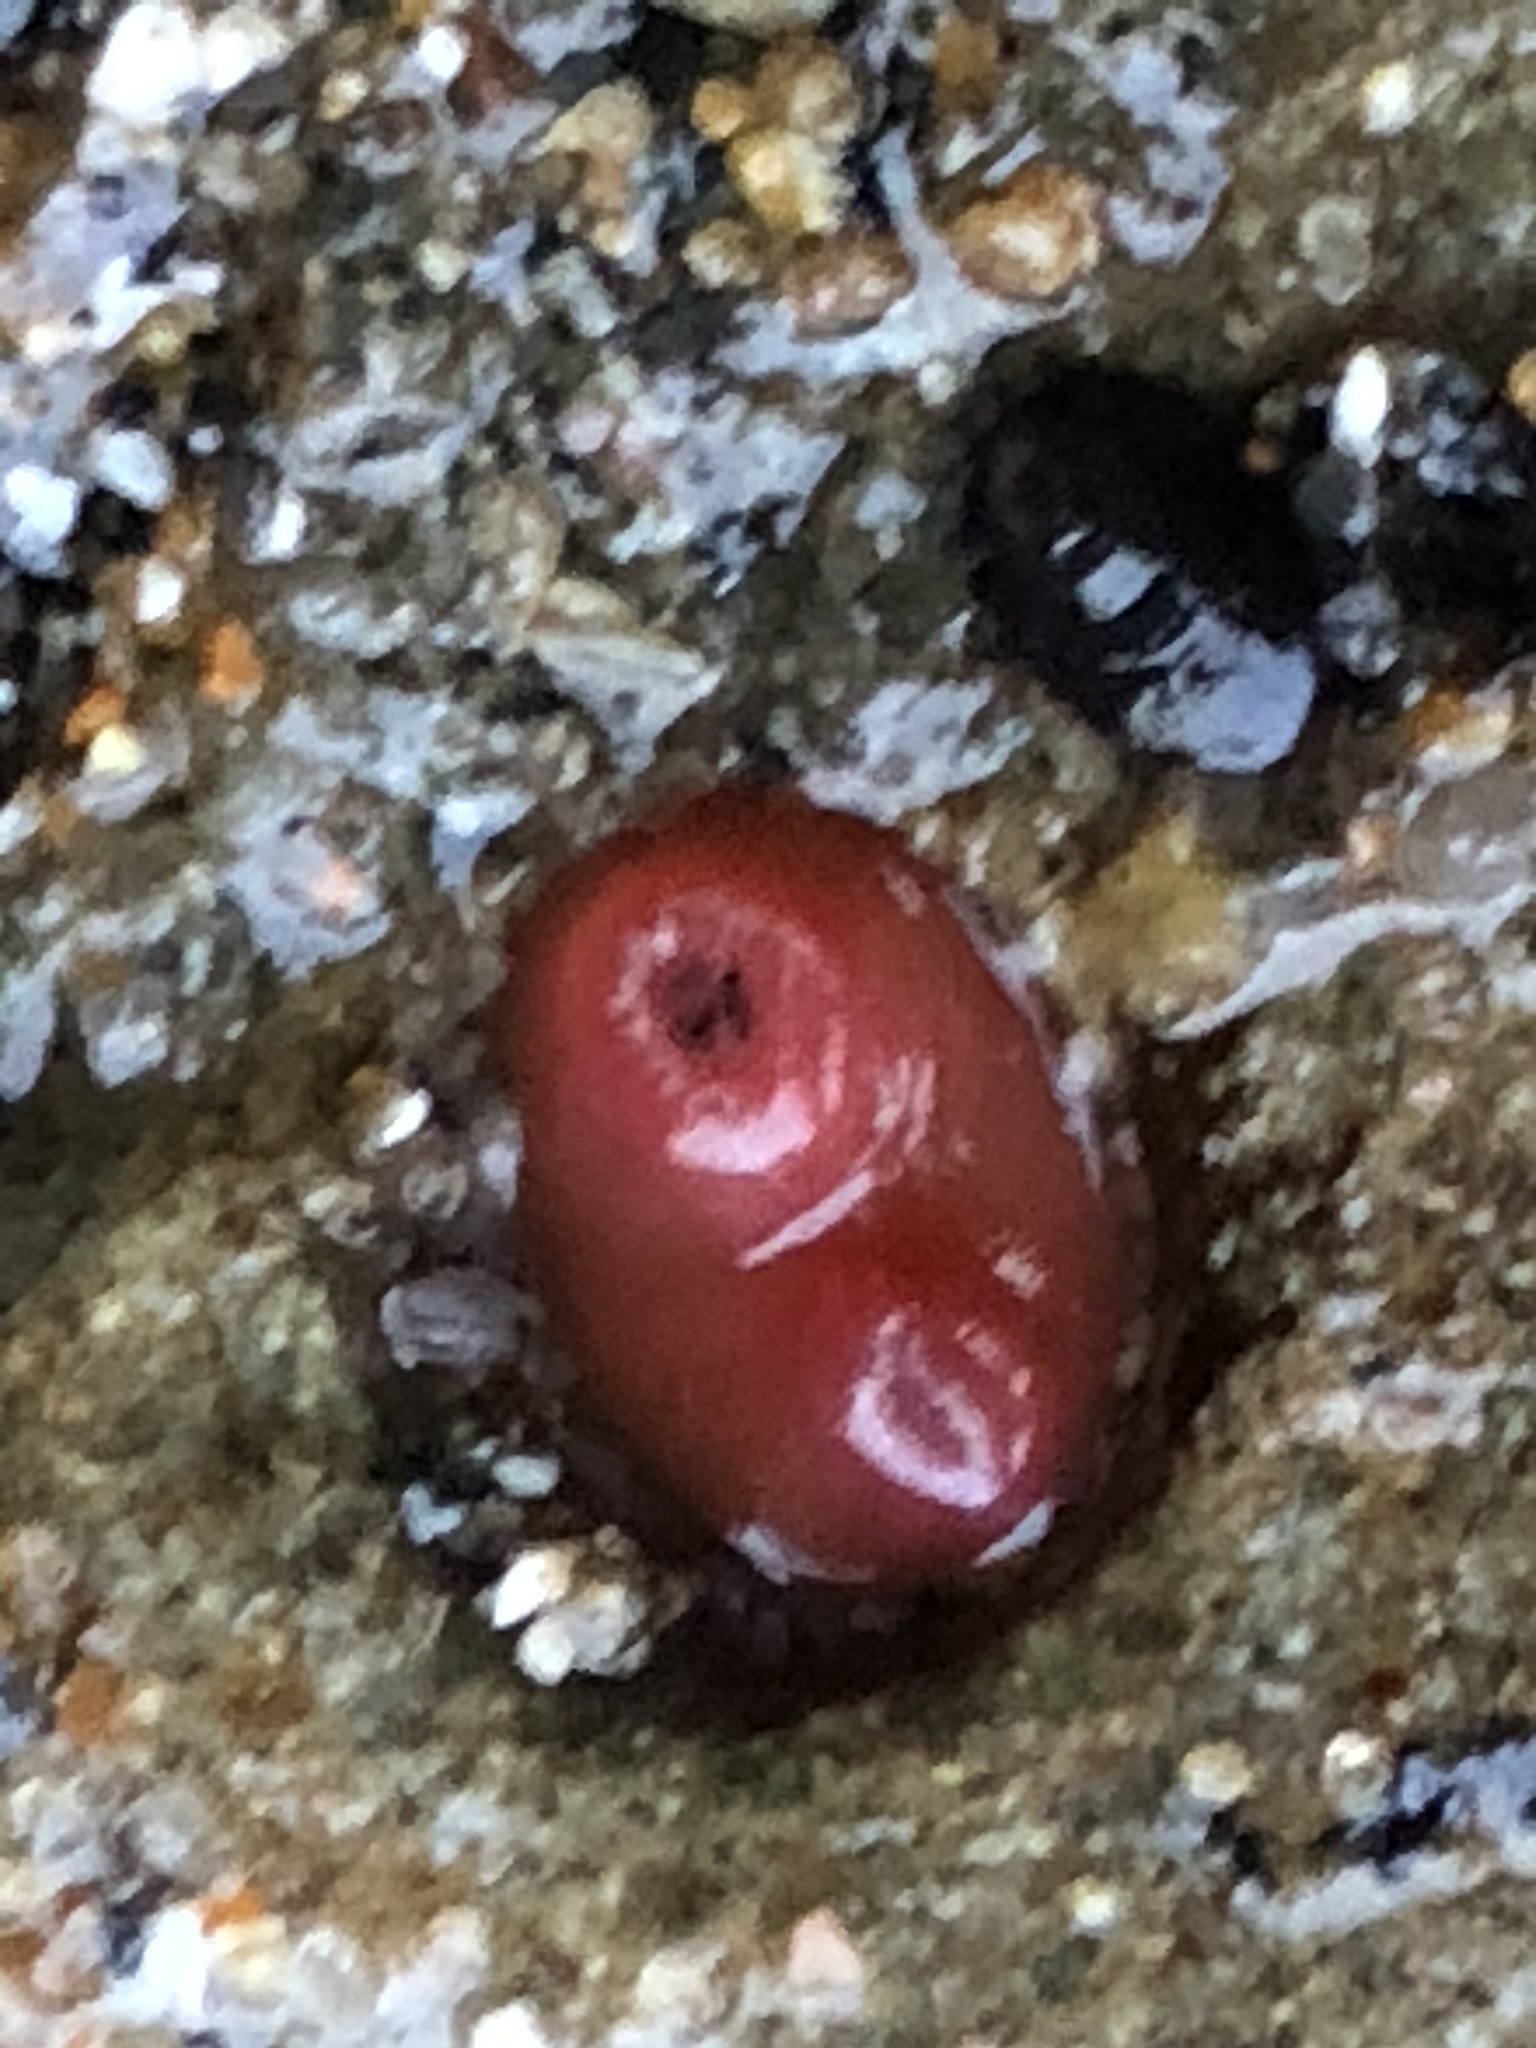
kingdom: Animalia
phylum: Mollusca
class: Bivalvia
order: Adapedonta
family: Hiatellidae
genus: Hiatella
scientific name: Hiatella arctica
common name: Arctic hiatella
